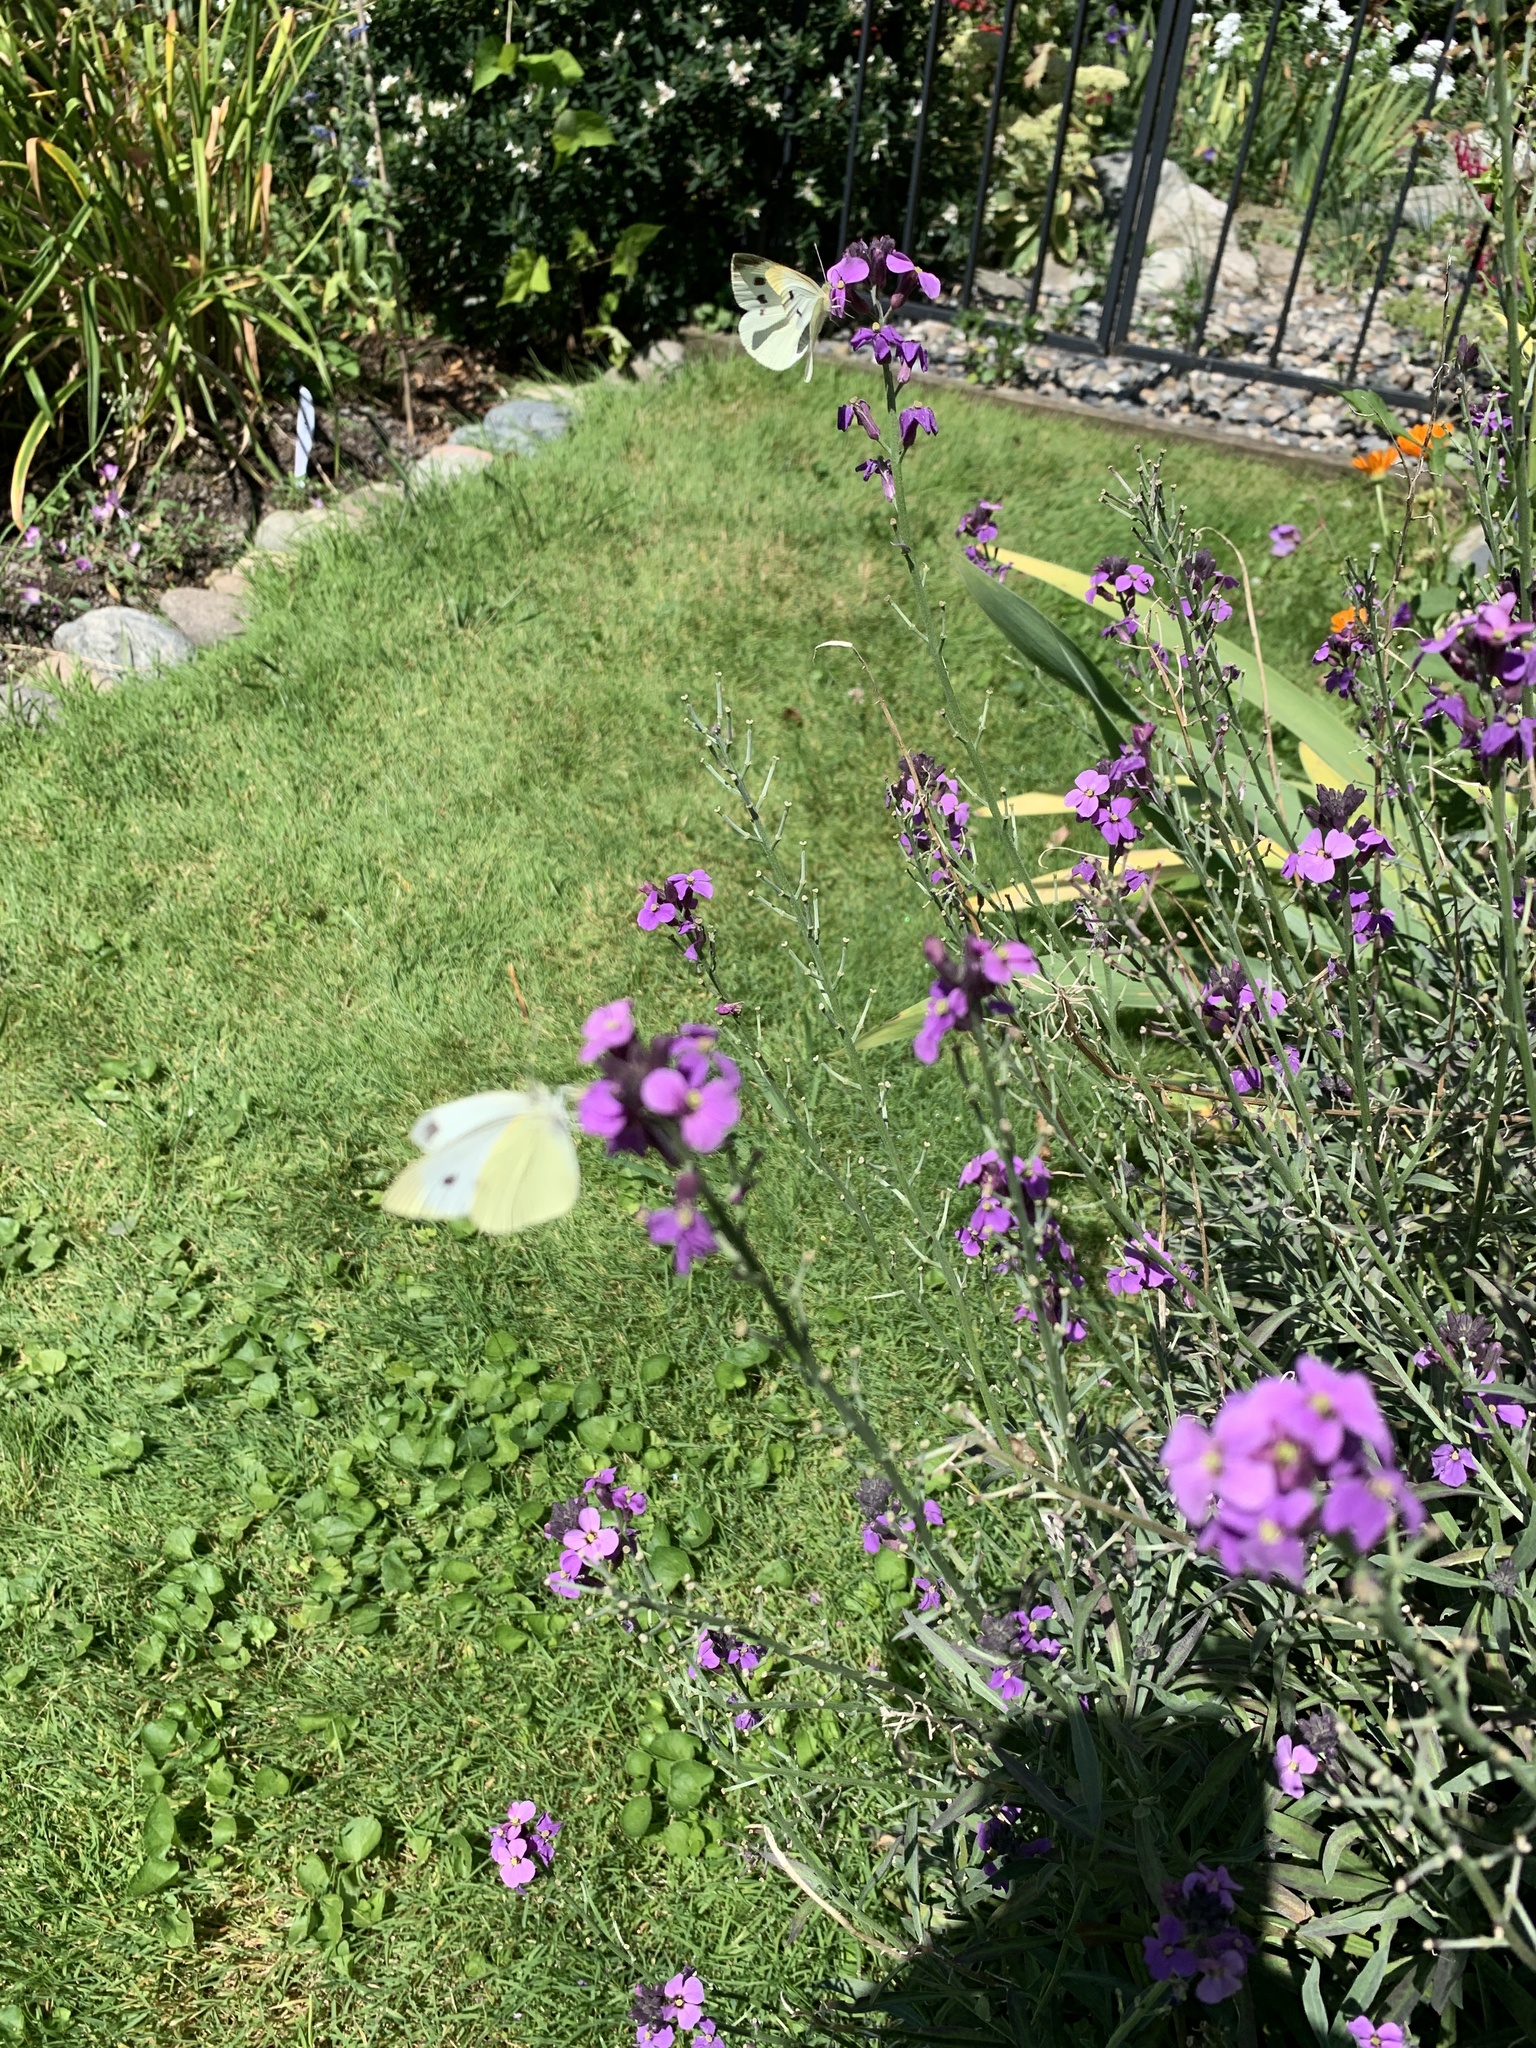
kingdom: Animalia
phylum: Arthropoda
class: Insecta
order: Lepidoptera
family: Pieridae
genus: Pieris
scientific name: Pieris rapae
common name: Small white
